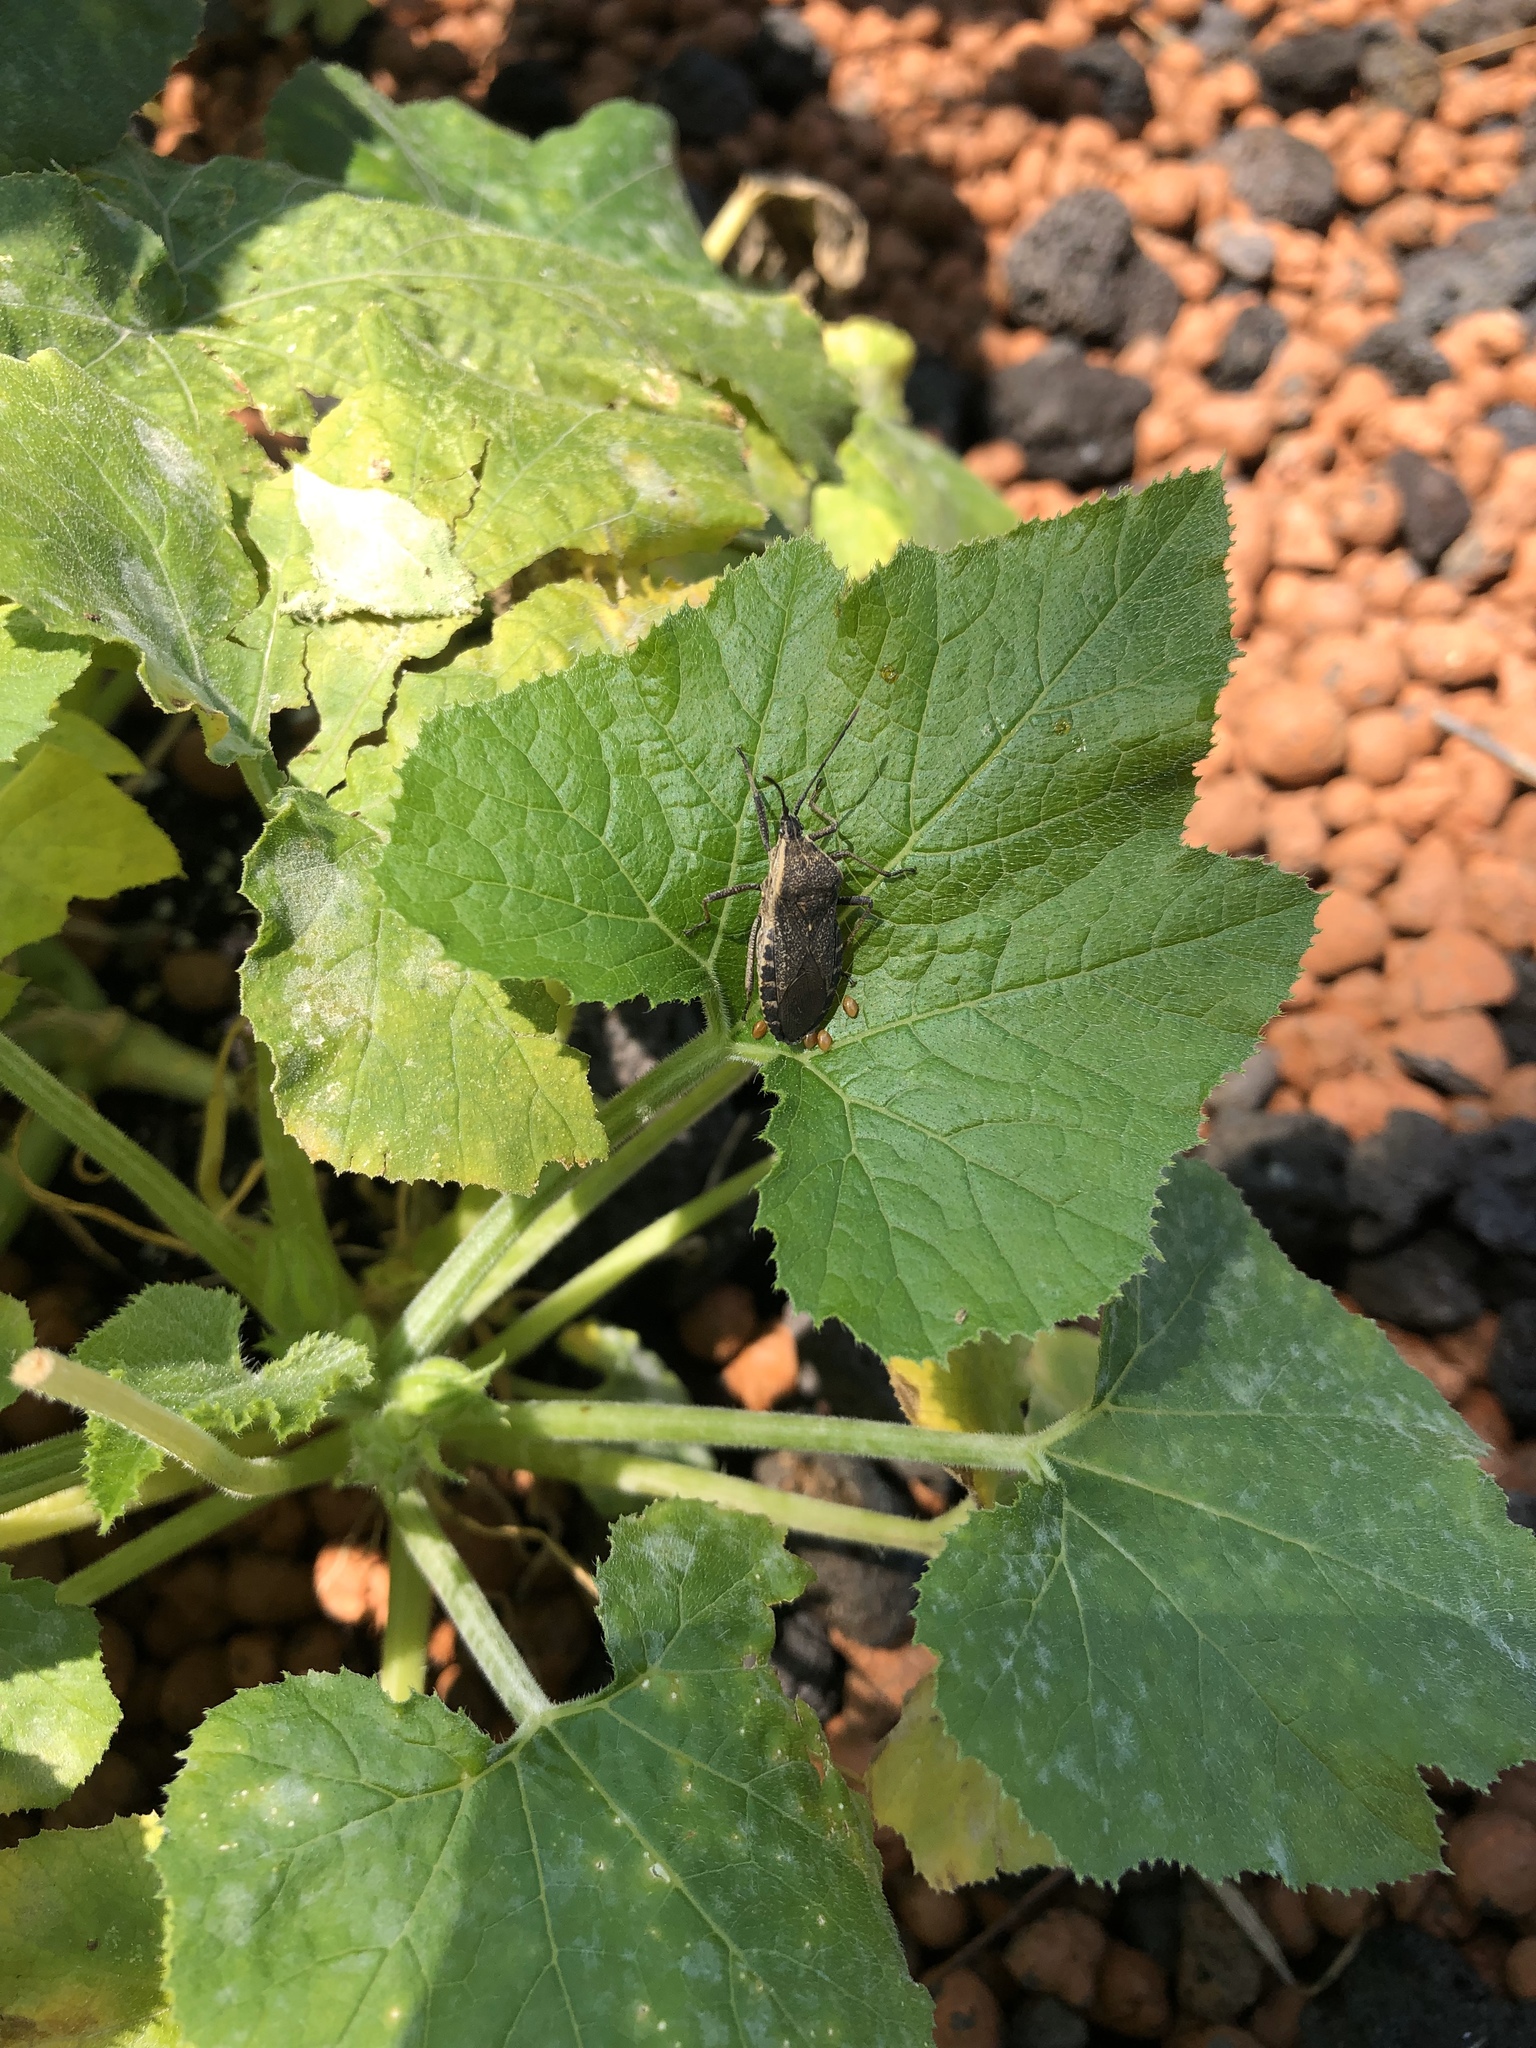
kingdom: Animalia
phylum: Arthropoda
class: Insecta
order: Hemiptera
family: Coreidae
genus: Anasa
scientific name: Anasa tristis
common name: Squash bug
